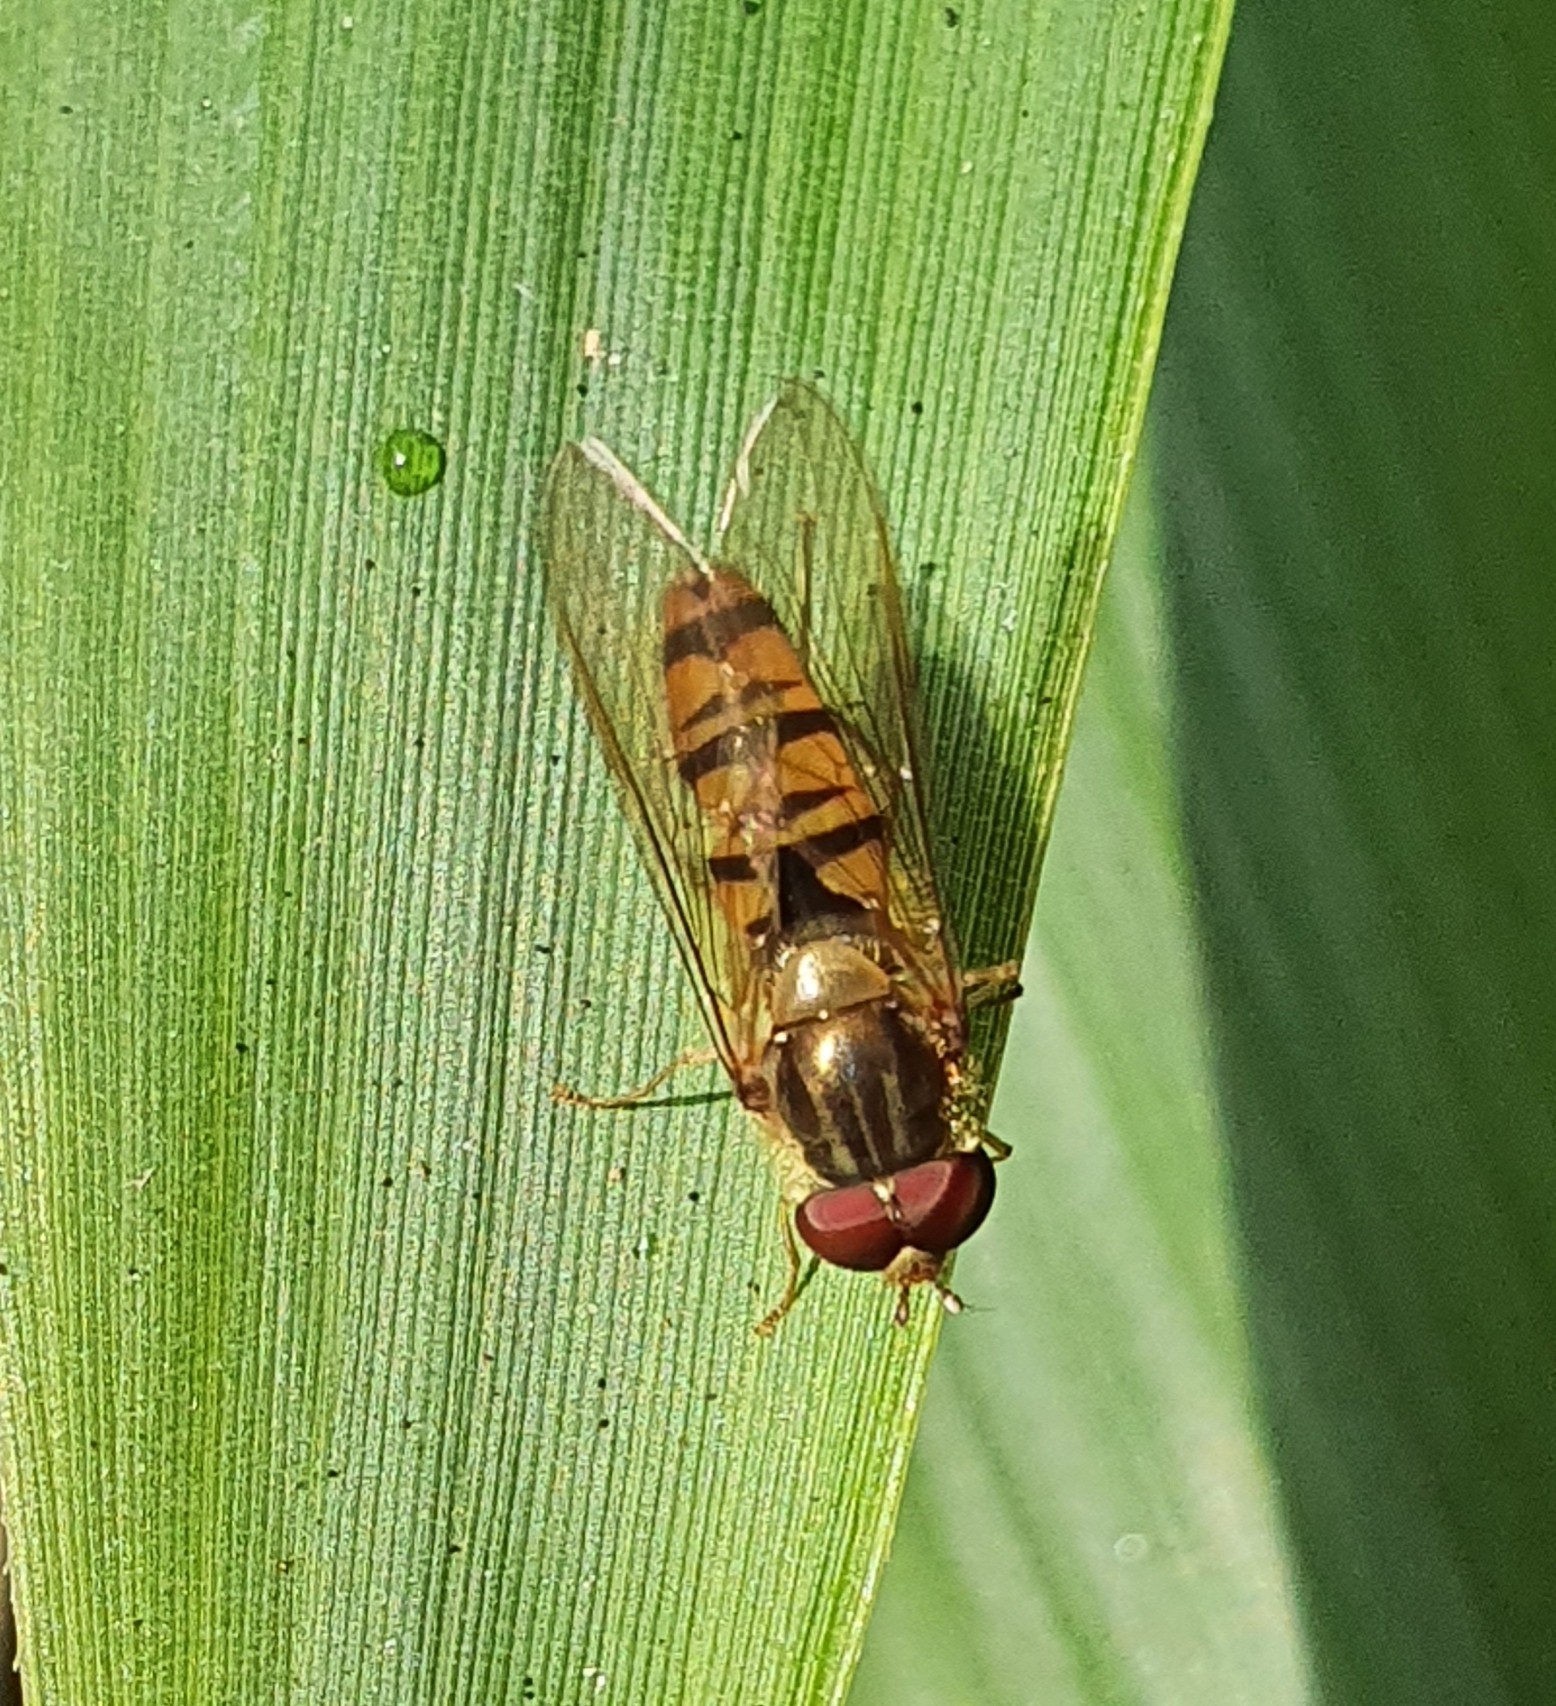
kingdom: Animalia
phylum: Arthropoda
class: Insecta
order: Diptera
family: Syrphidae
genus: Episyrphus
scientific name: Episyrphus balteatus
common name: Marmalade hoverfly
